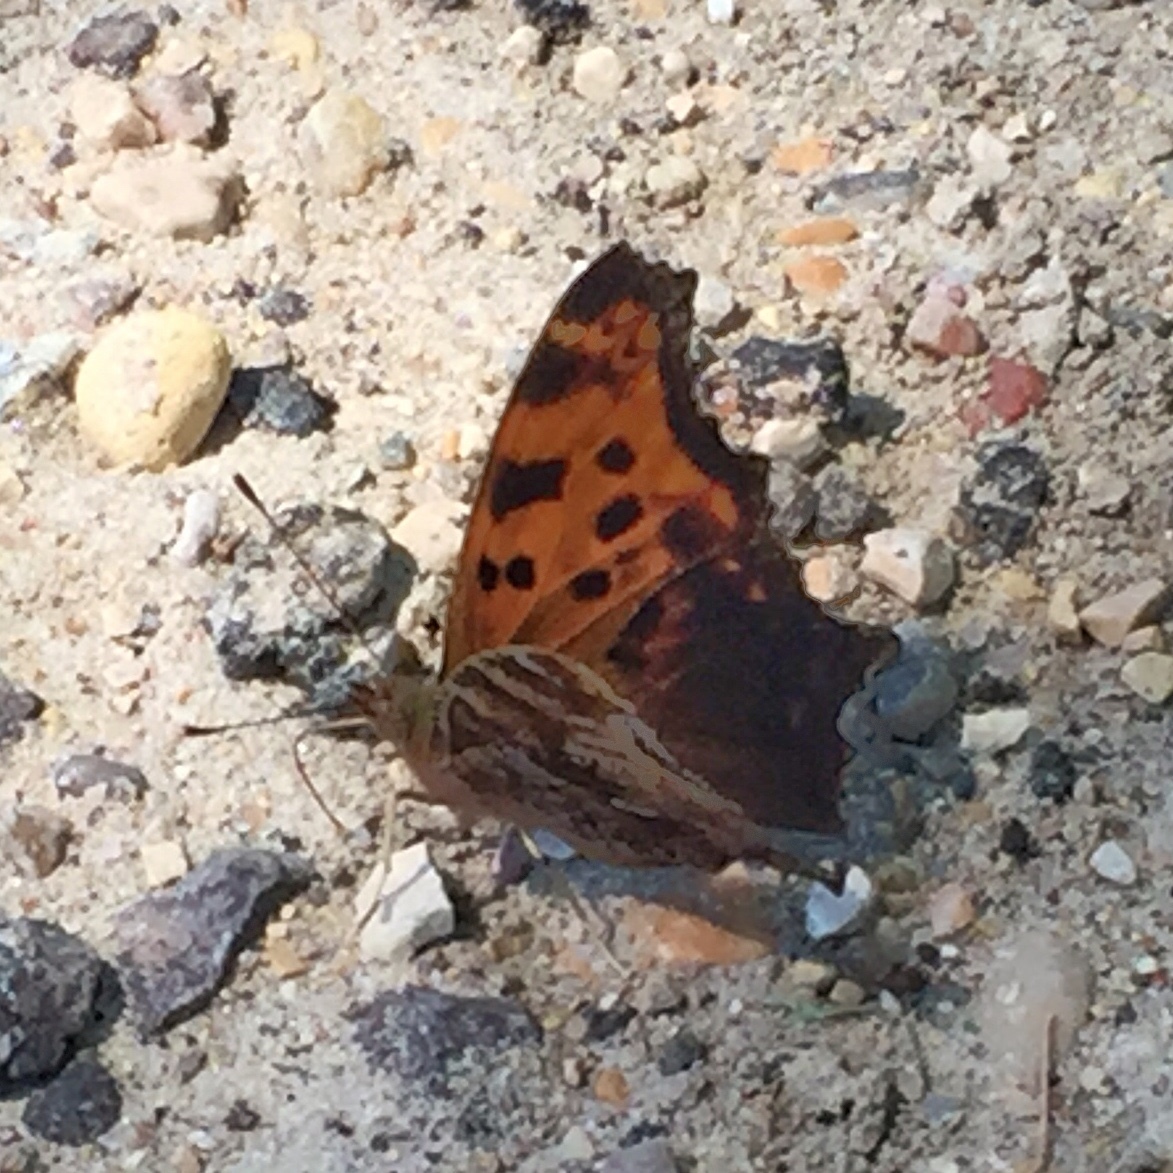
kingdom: Animalia
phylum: Arthropoda
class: Insecta
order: Lepidoptera
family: Nymphalidae
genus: Polygonia
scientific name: Polygonia comma
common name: Eastern comma
